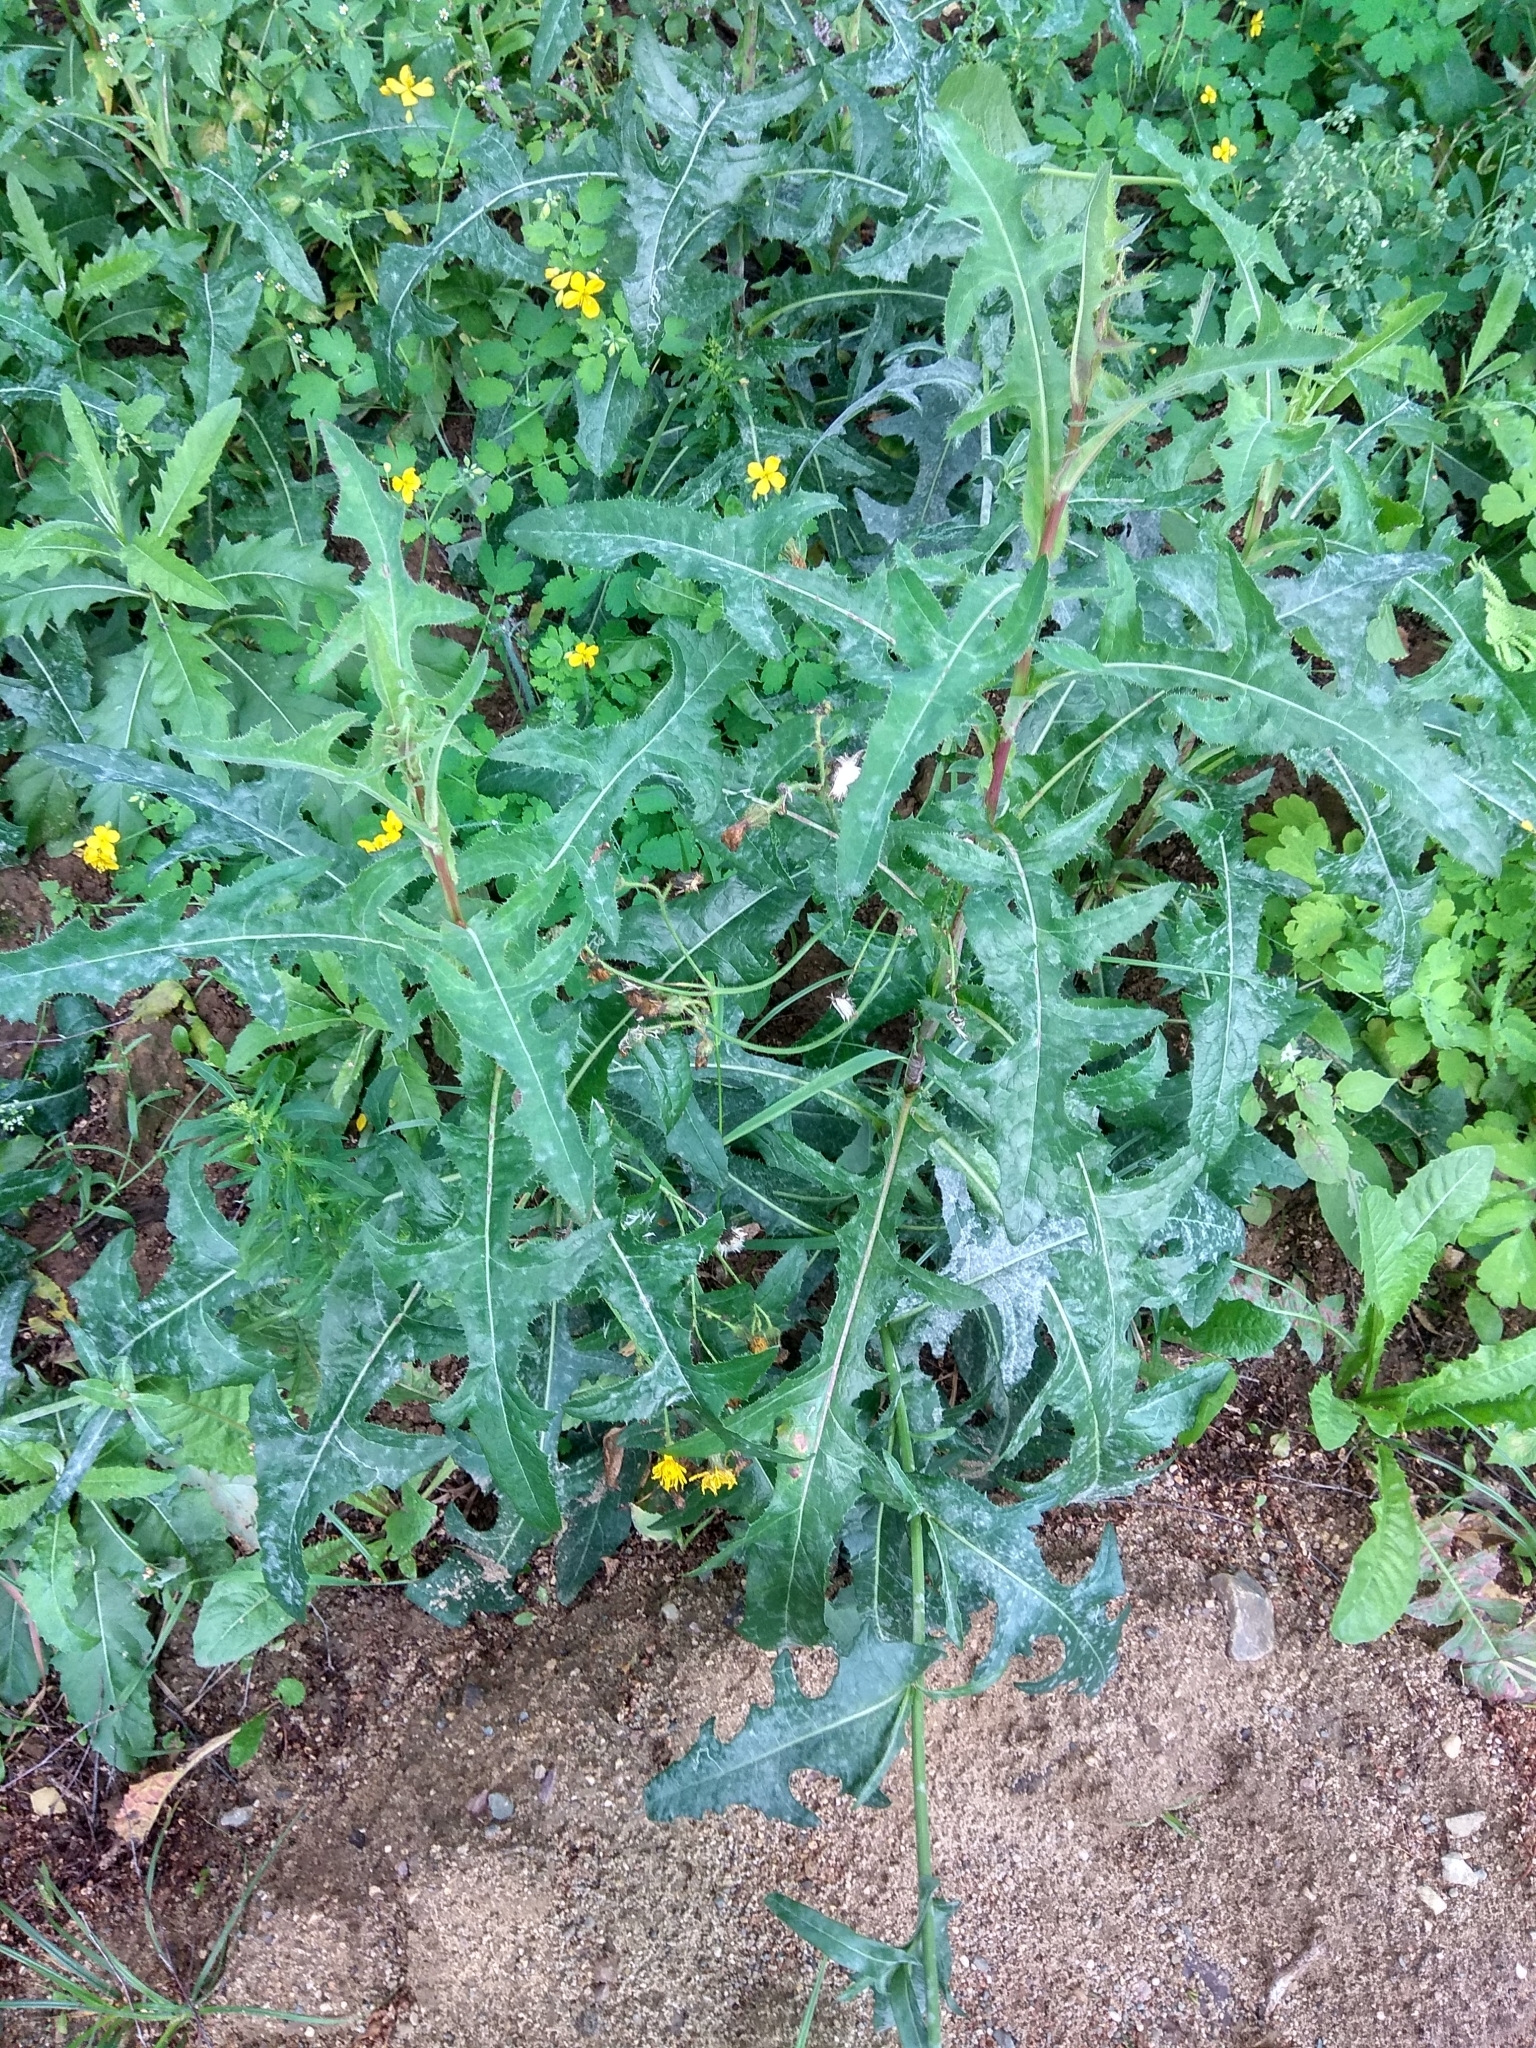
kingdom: Plantae
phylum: Tracheophyta
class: Magnoliopsida
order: Asterales
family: Asteraceae
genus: Sonchus
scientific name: Sonchus arvensis
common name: Perennial sow-thistle
